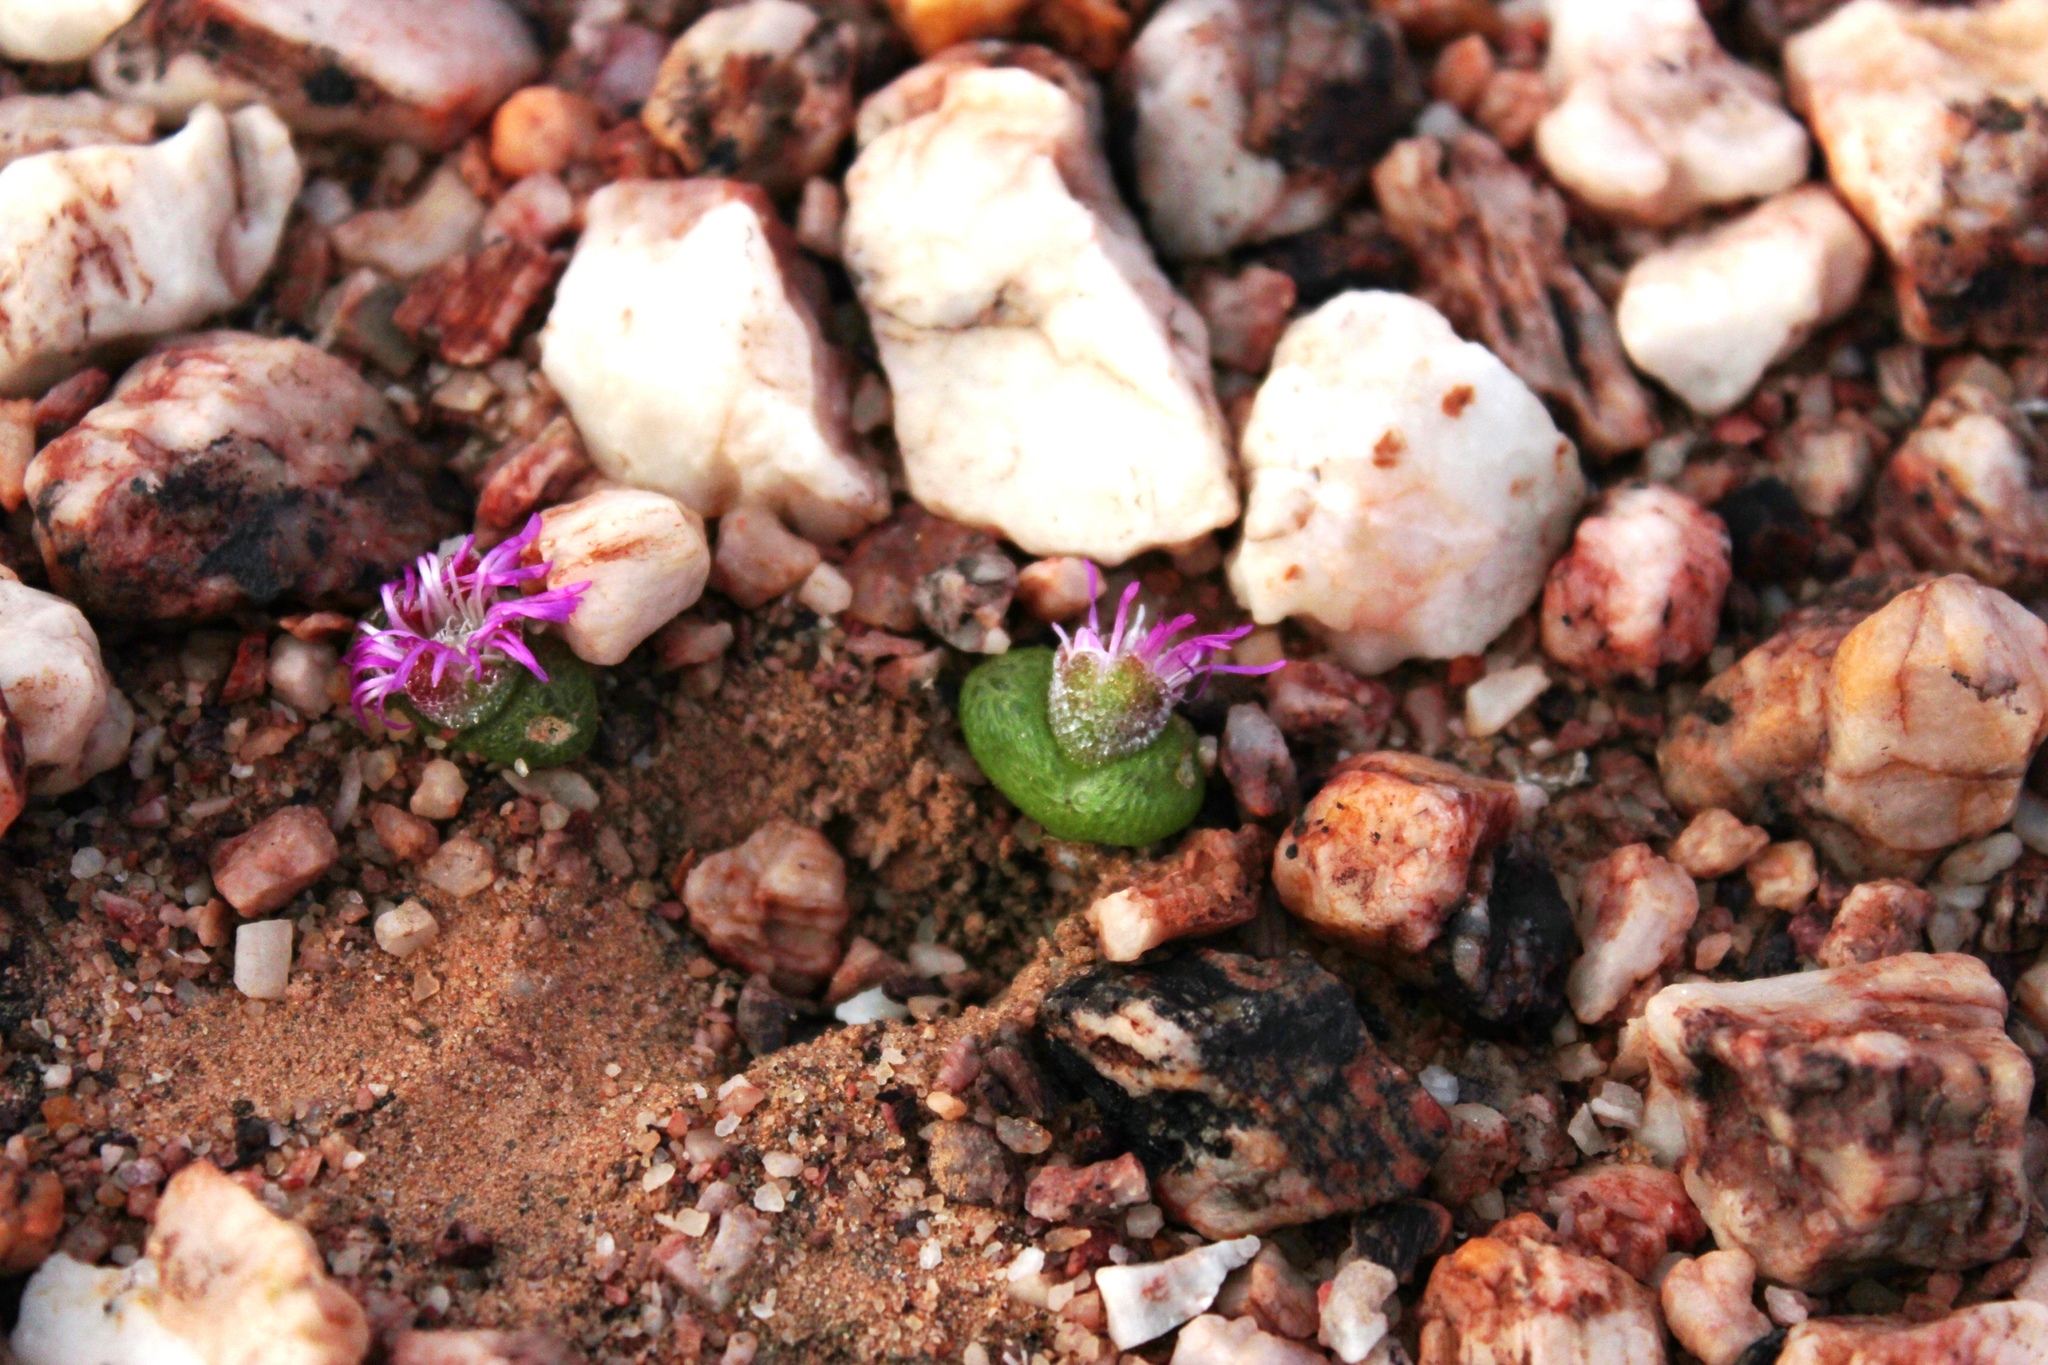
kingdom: Plantae
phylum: Tracheophyta
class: Magnoliopsida
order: Caryophyllales
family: Aizoaceae
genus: Diplosoma
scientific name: Diplosoma luckhoffii
